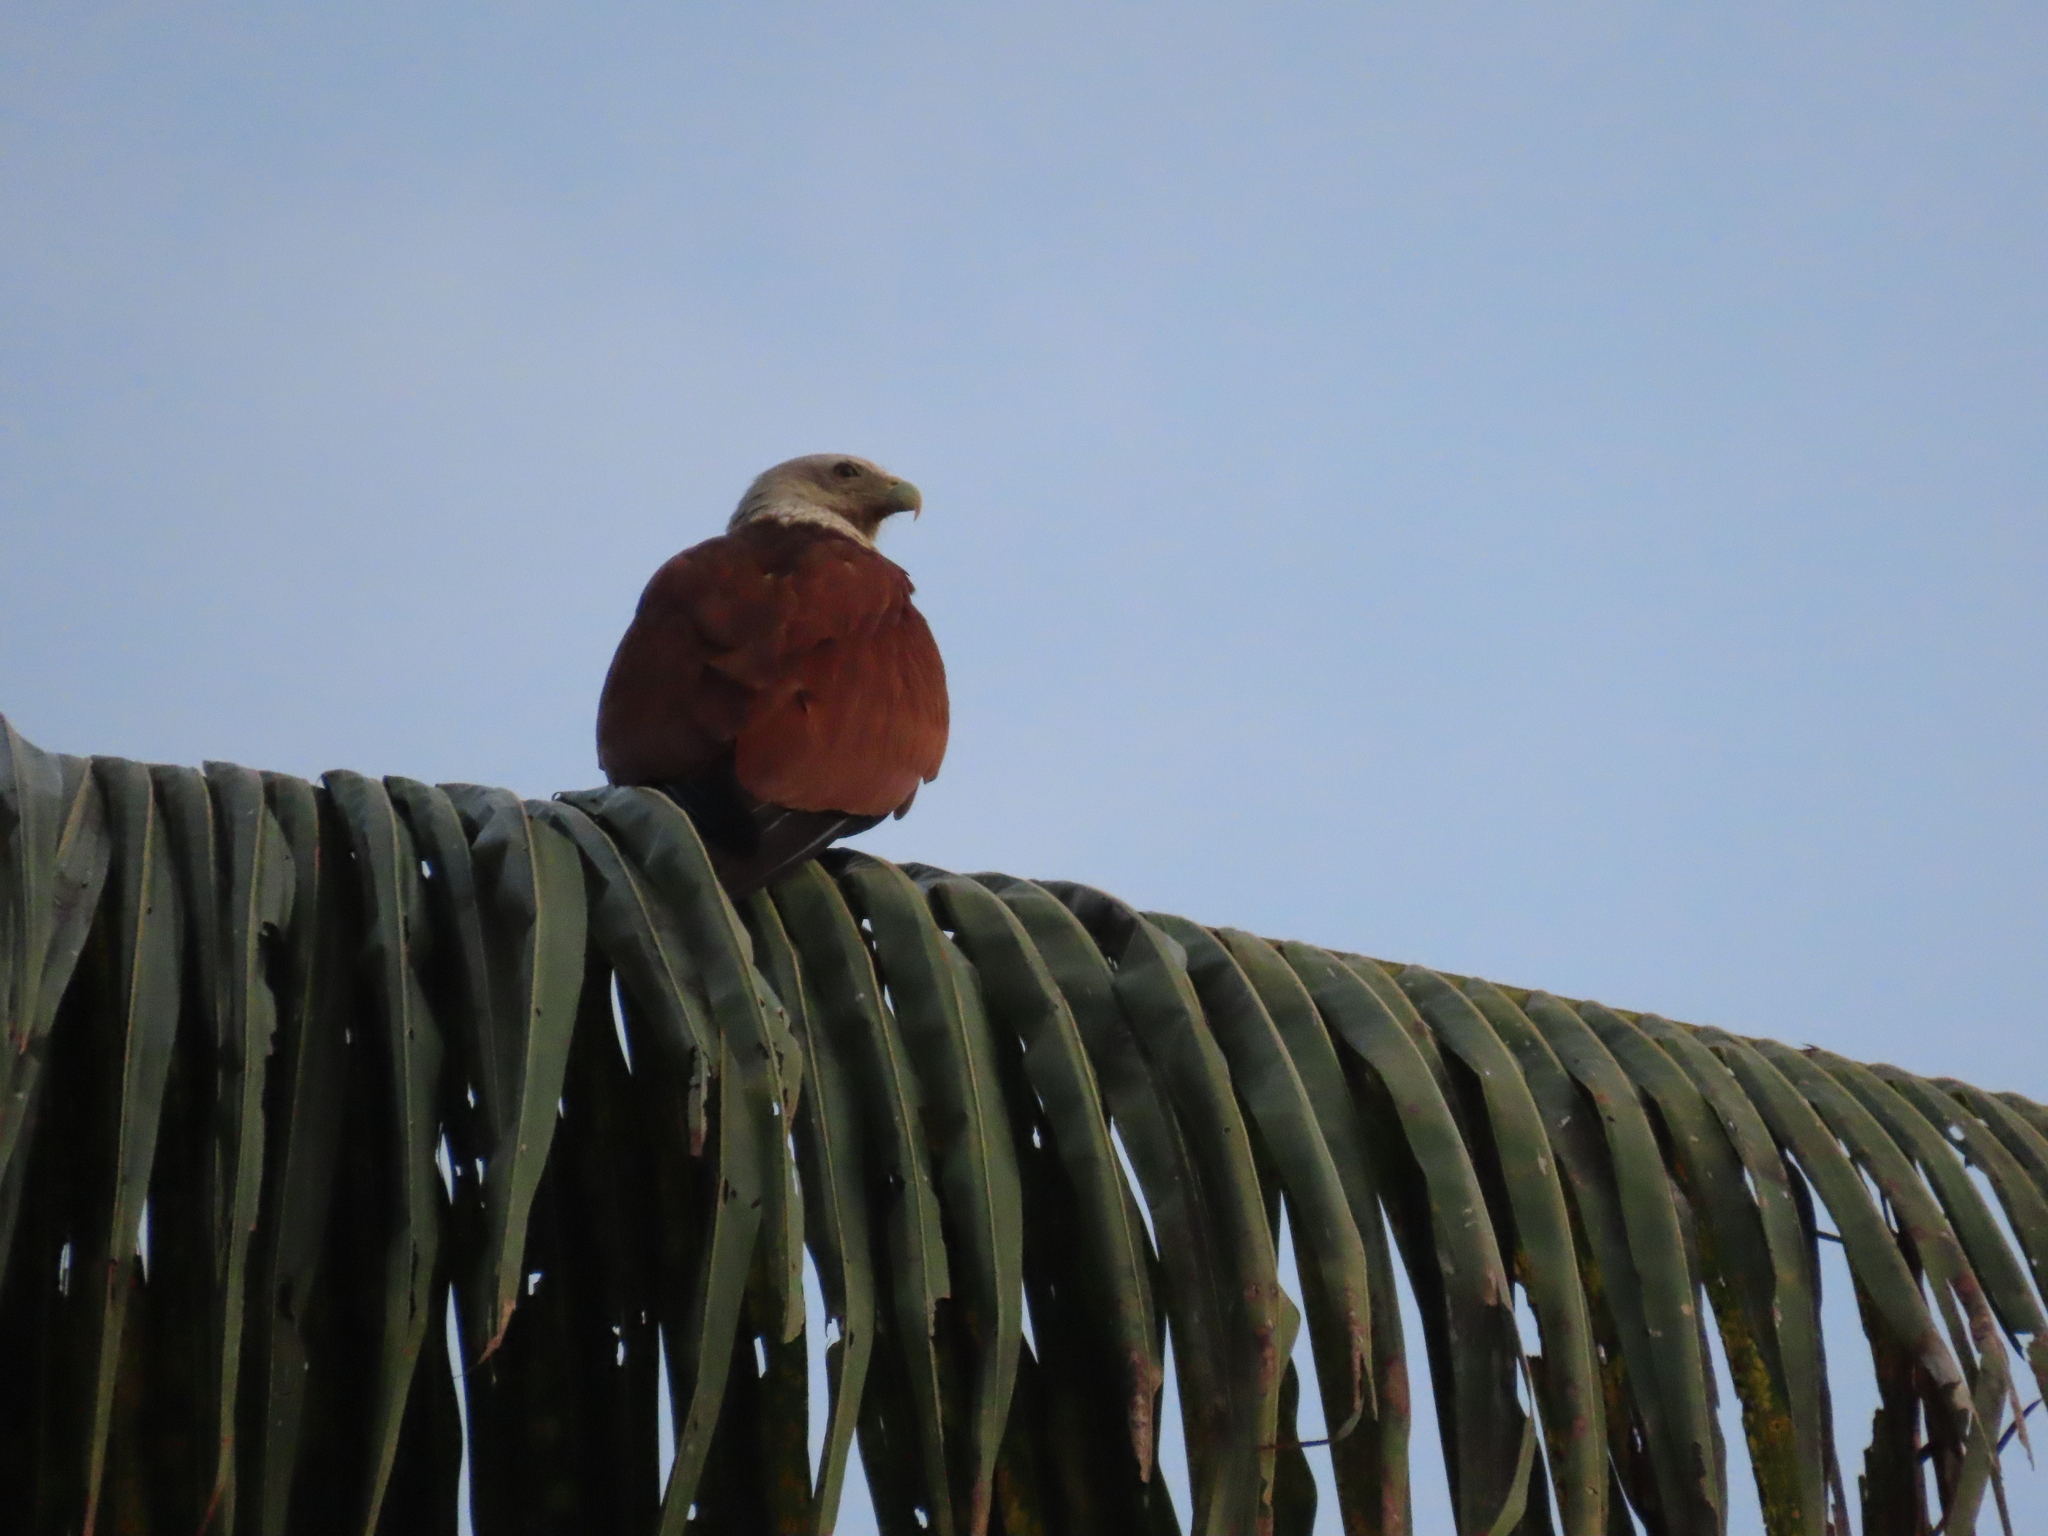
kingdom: Animalia
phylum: Chordata
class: Aves
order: Accipitriformes
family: Accipitridae
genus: Haliastur
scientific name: Haliastur indus
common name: Brahminy kite
